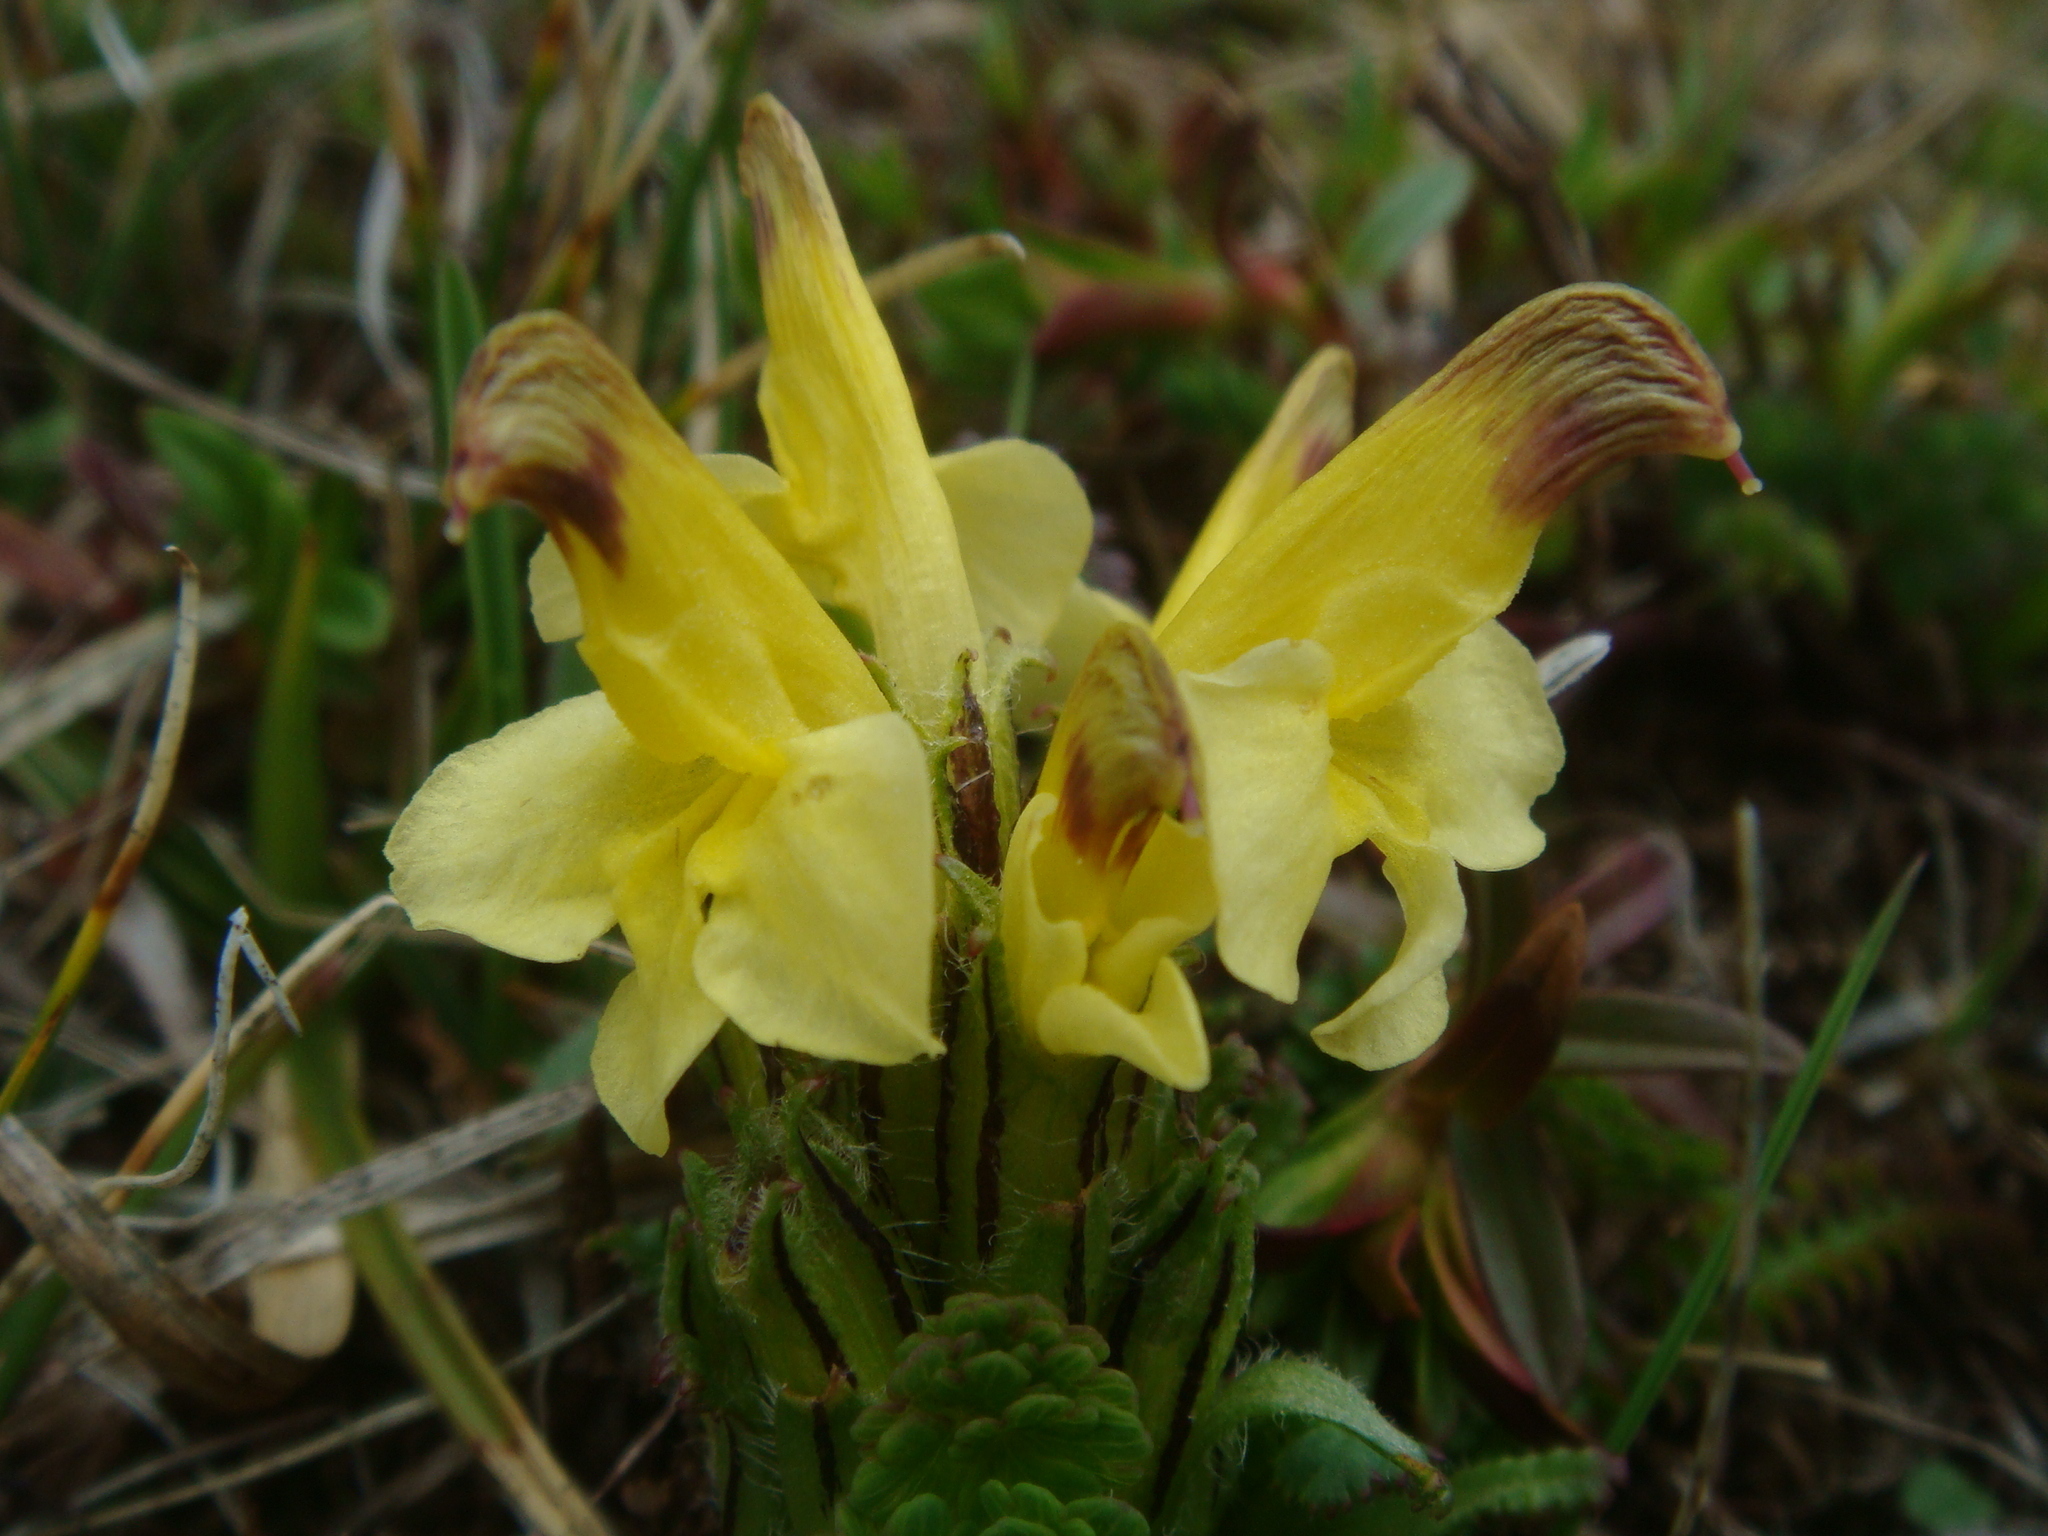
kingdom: Plantae
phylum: Tracheophyta
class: Magnoliopsida
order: Lamiales
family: Orobanchaceae
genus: Pedicularis
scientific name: Pedicularis oederi
